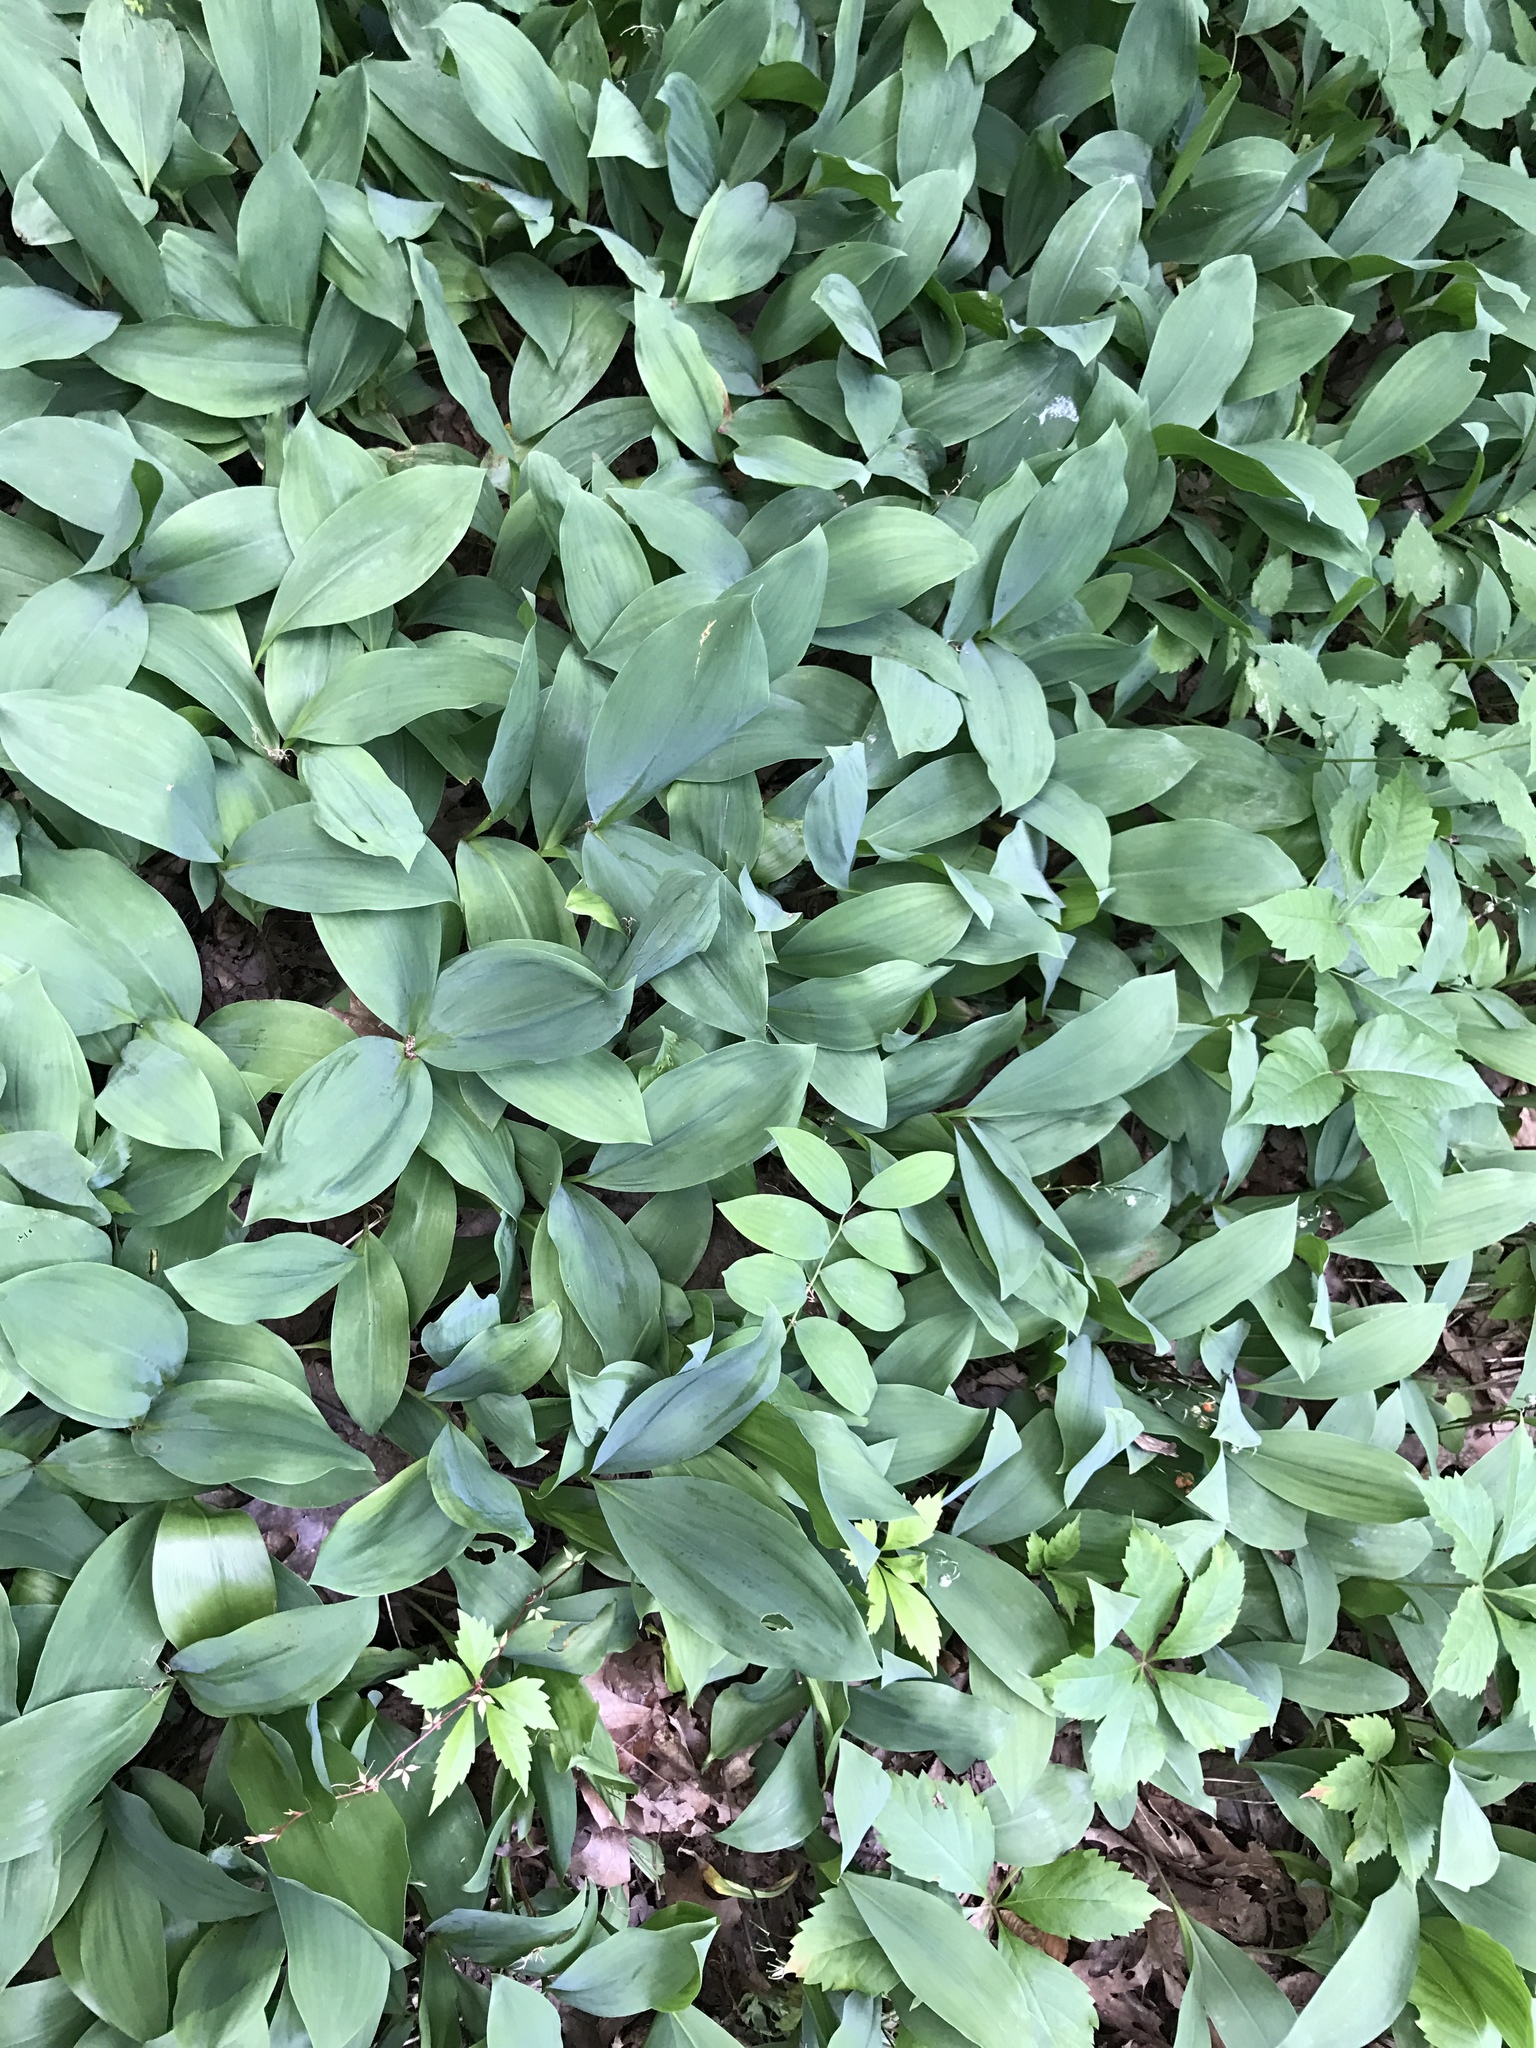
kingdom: Plantae
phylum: Tracheophyta
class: Liliopsida
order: Asparagales
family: Asparagaceae
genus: Convallaria
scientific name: Convallaria majalis
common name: Lily-of-the-valley
